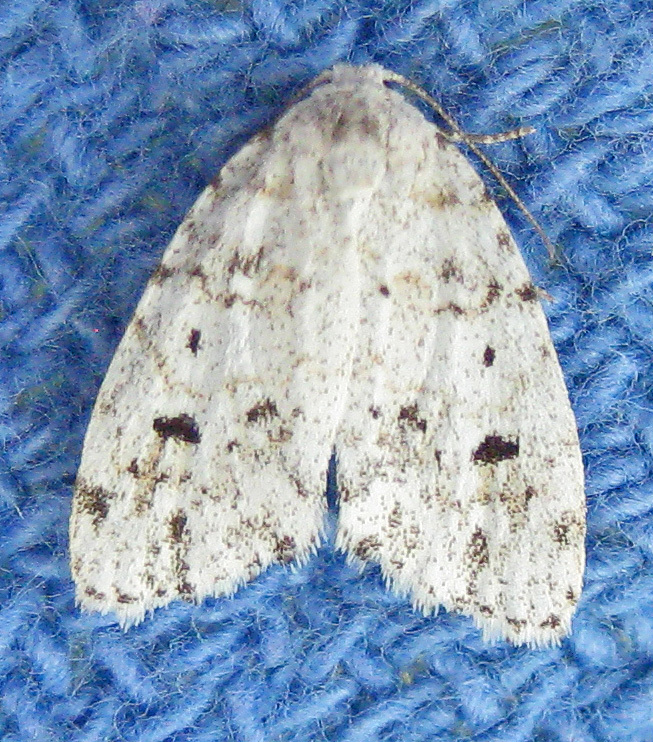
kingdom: Animalia
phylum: Arthropoda
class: Insecta
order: Lepidoptera
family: Erebidae
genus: Clemensia
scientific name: Clemensia albata
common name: Little white lichen moth
